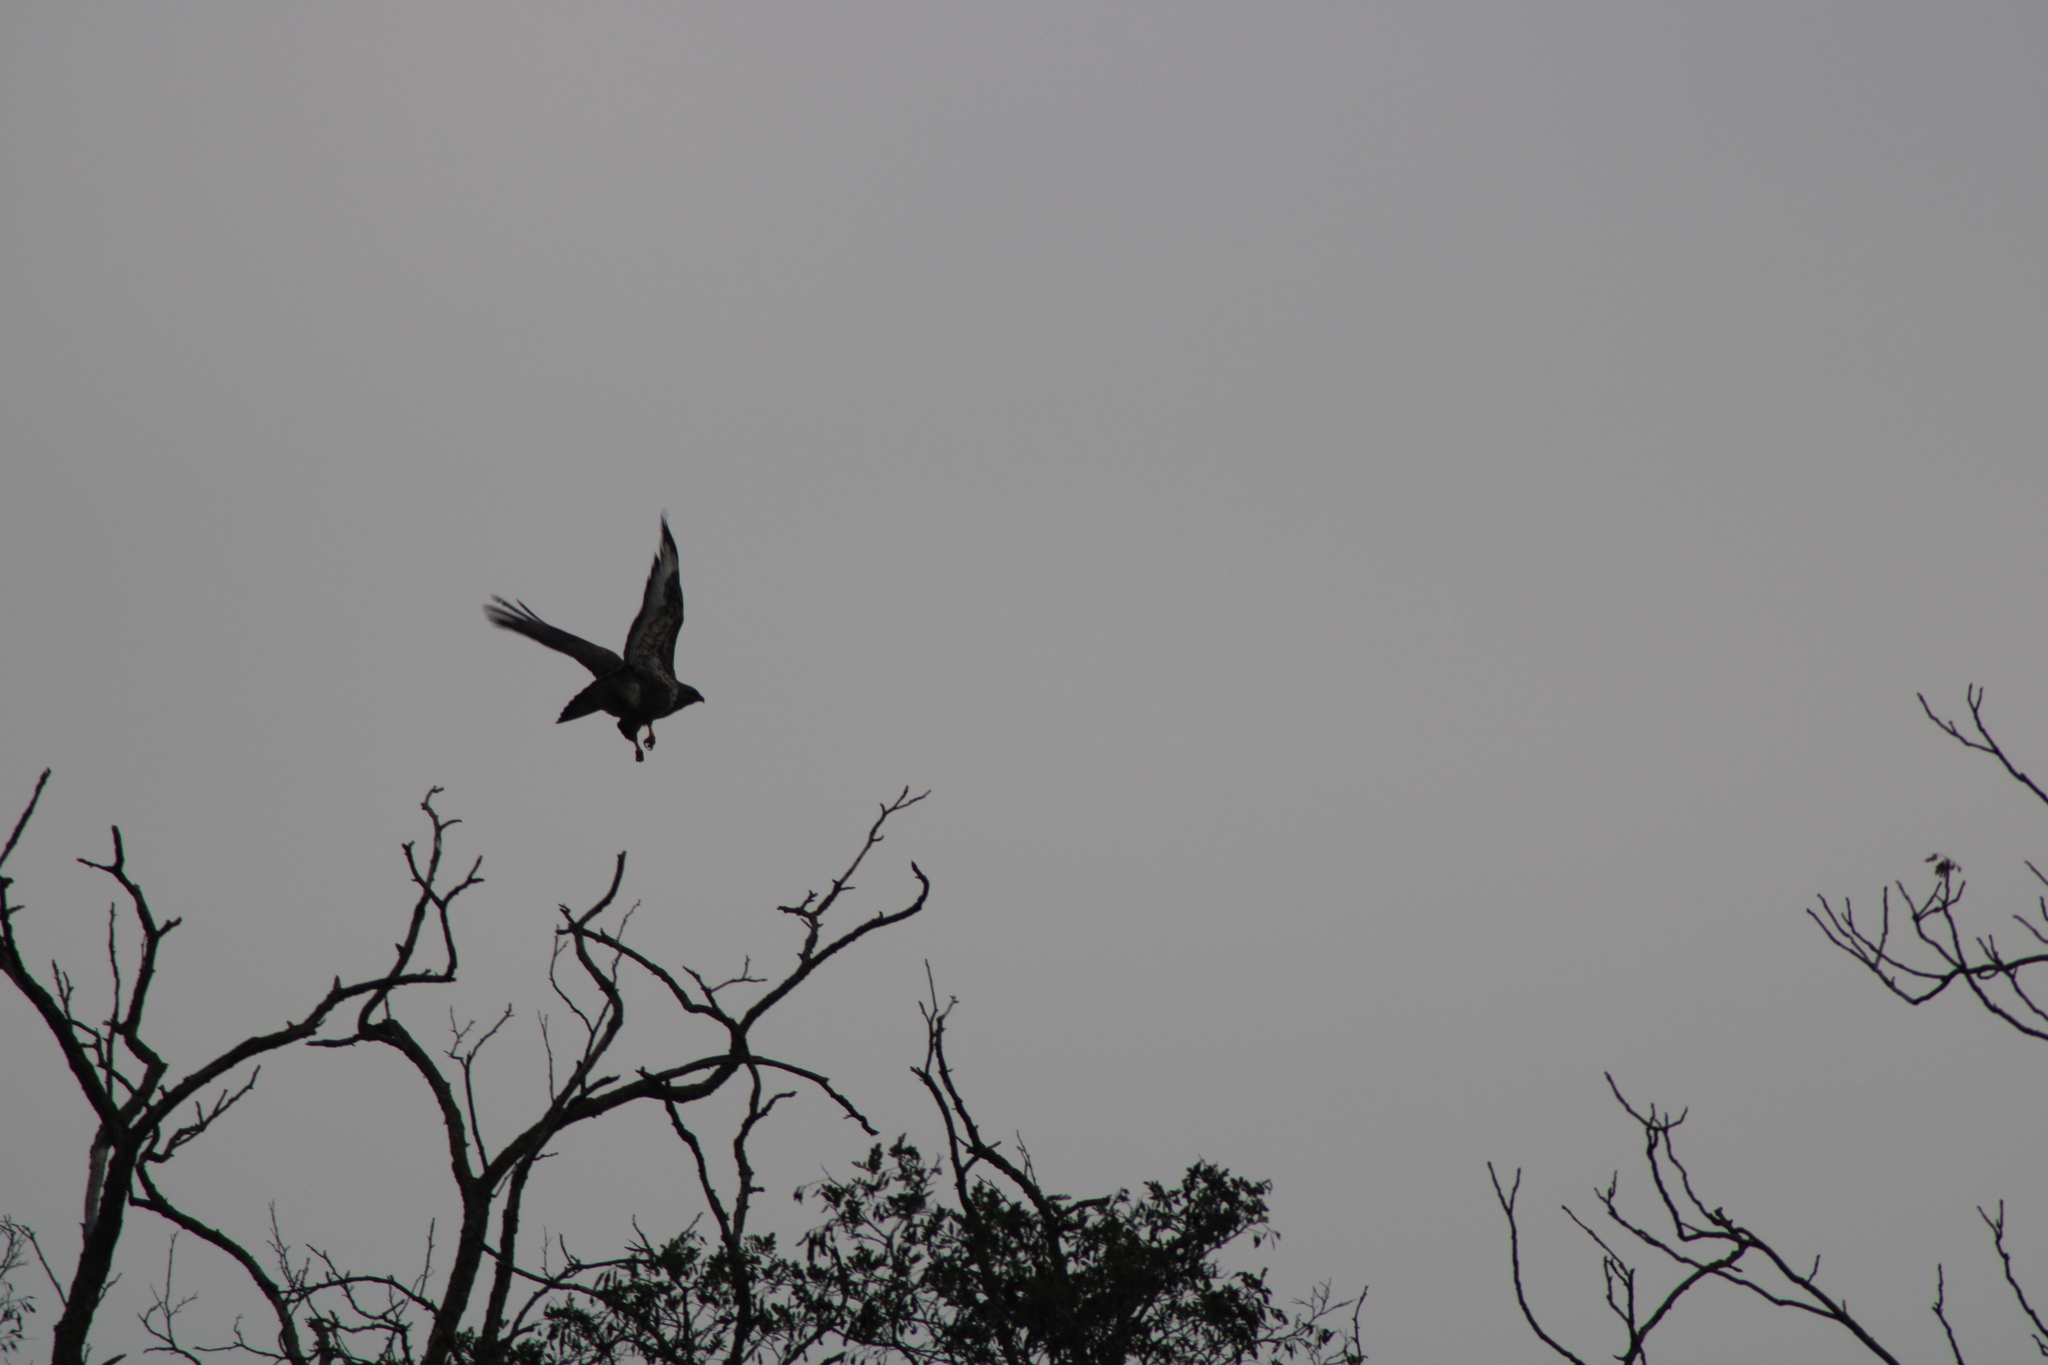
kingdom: Animalia
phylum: Chordata
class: Aves
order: Accipitriformes
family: Accipitridae
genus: Buteo
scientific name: Buteo buteo
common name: Common buzzard
